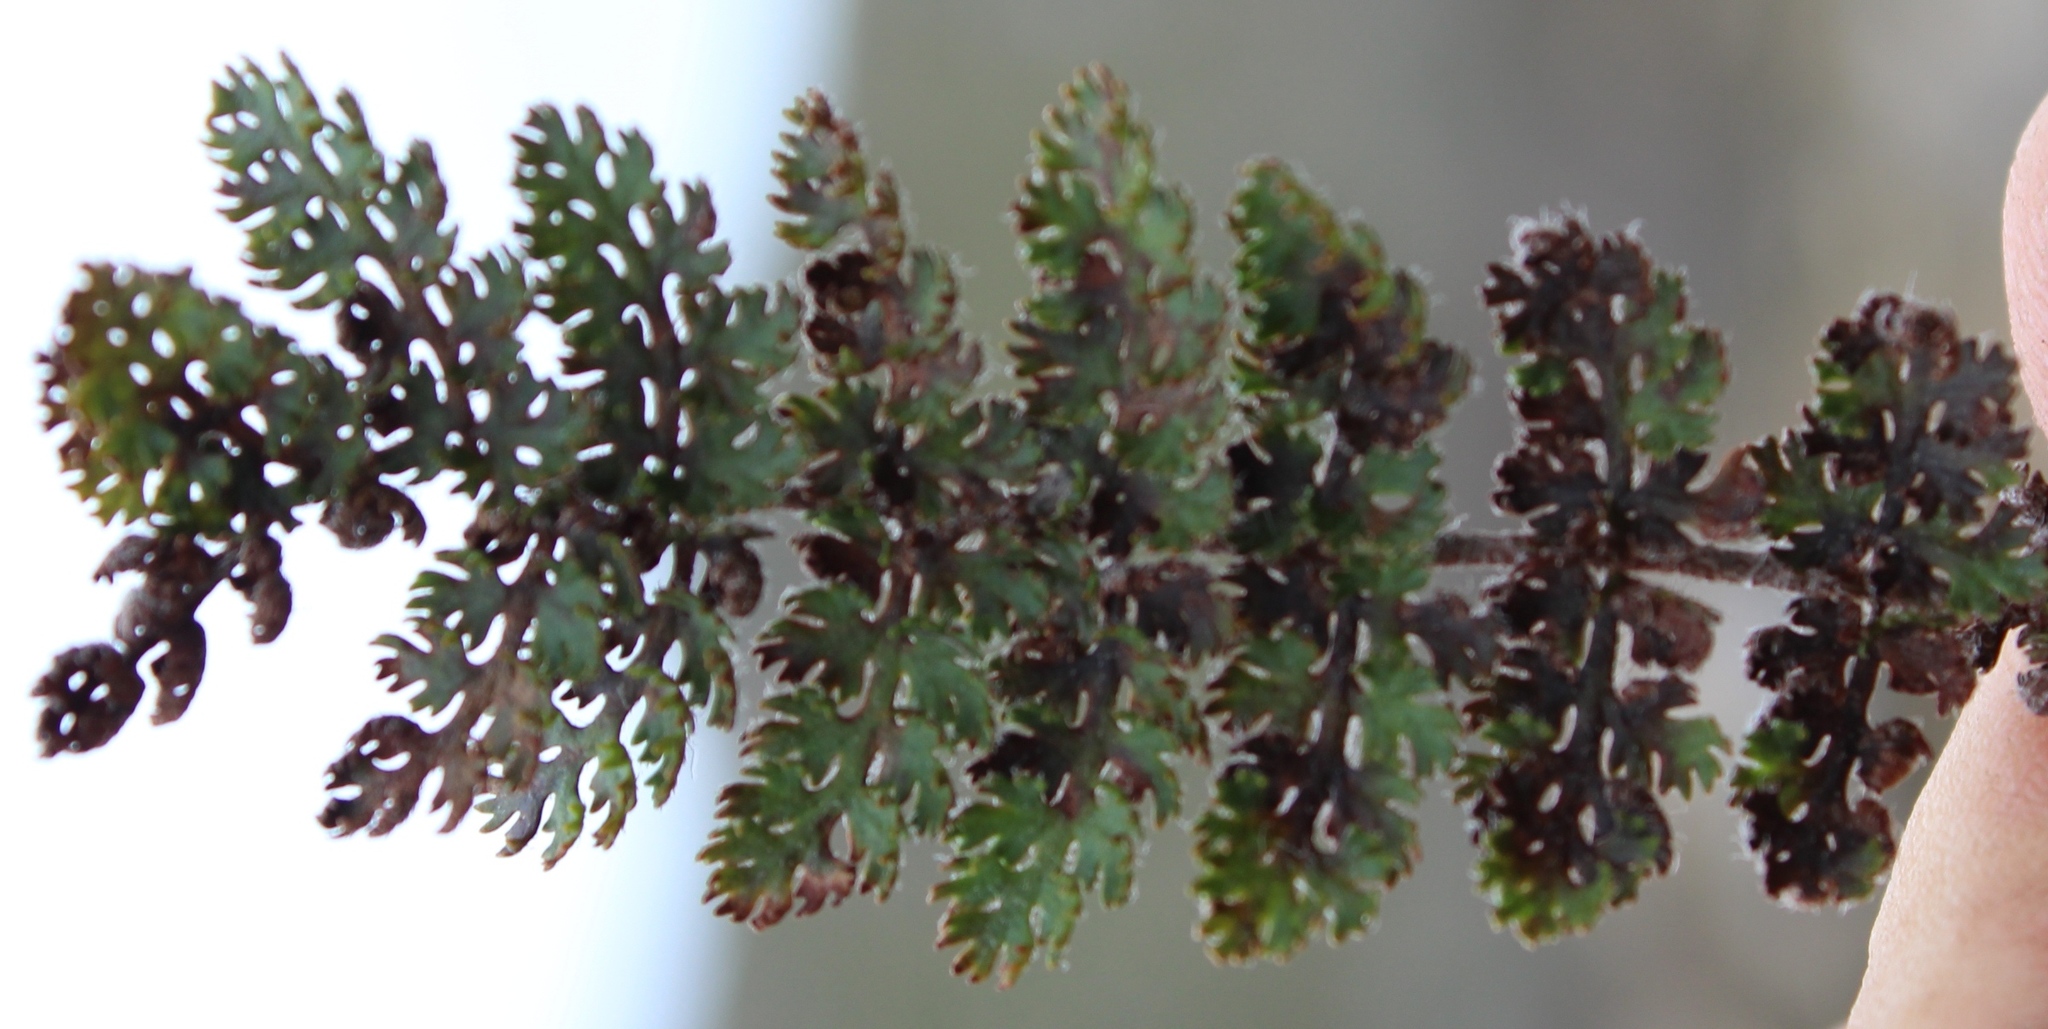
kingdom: Plantae
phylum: Tracheophyta
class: Polypodiopsida
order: Schizaeales
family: Anemiaceae
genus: Anemia
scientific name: Anemia caffrorum
